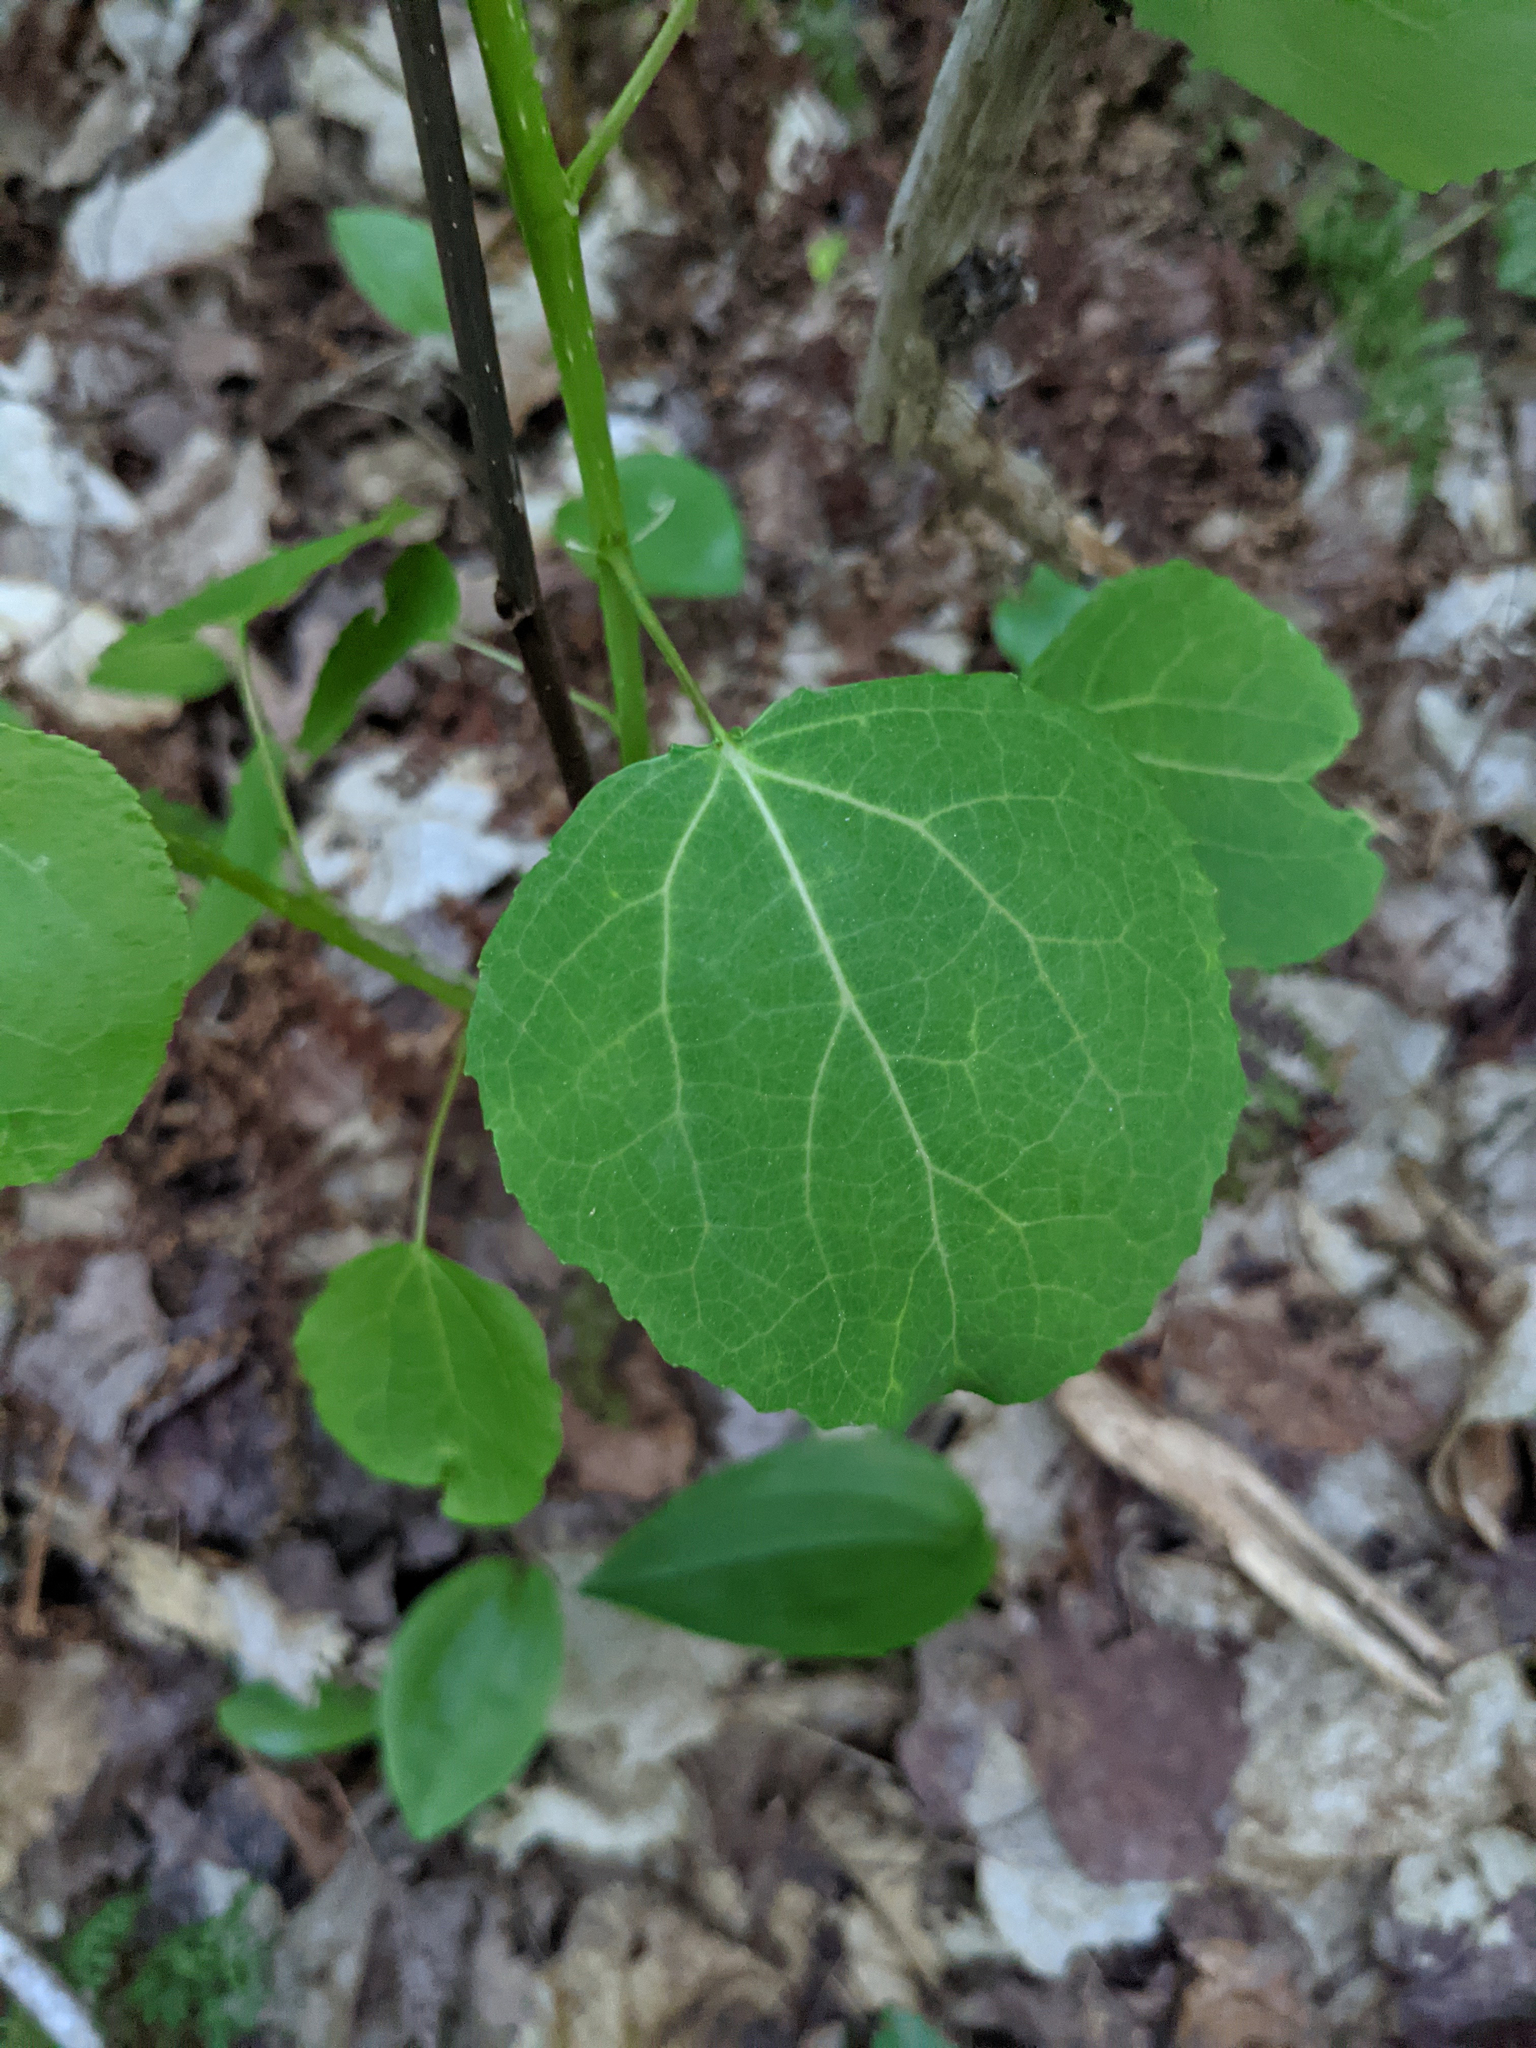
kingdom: Plantae
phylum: Tracheophyta
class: Magnoliopsida
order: Malpighiales
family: Salicaceae
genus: Populus
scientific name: Populus tremuloides
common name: Quaking aspen
